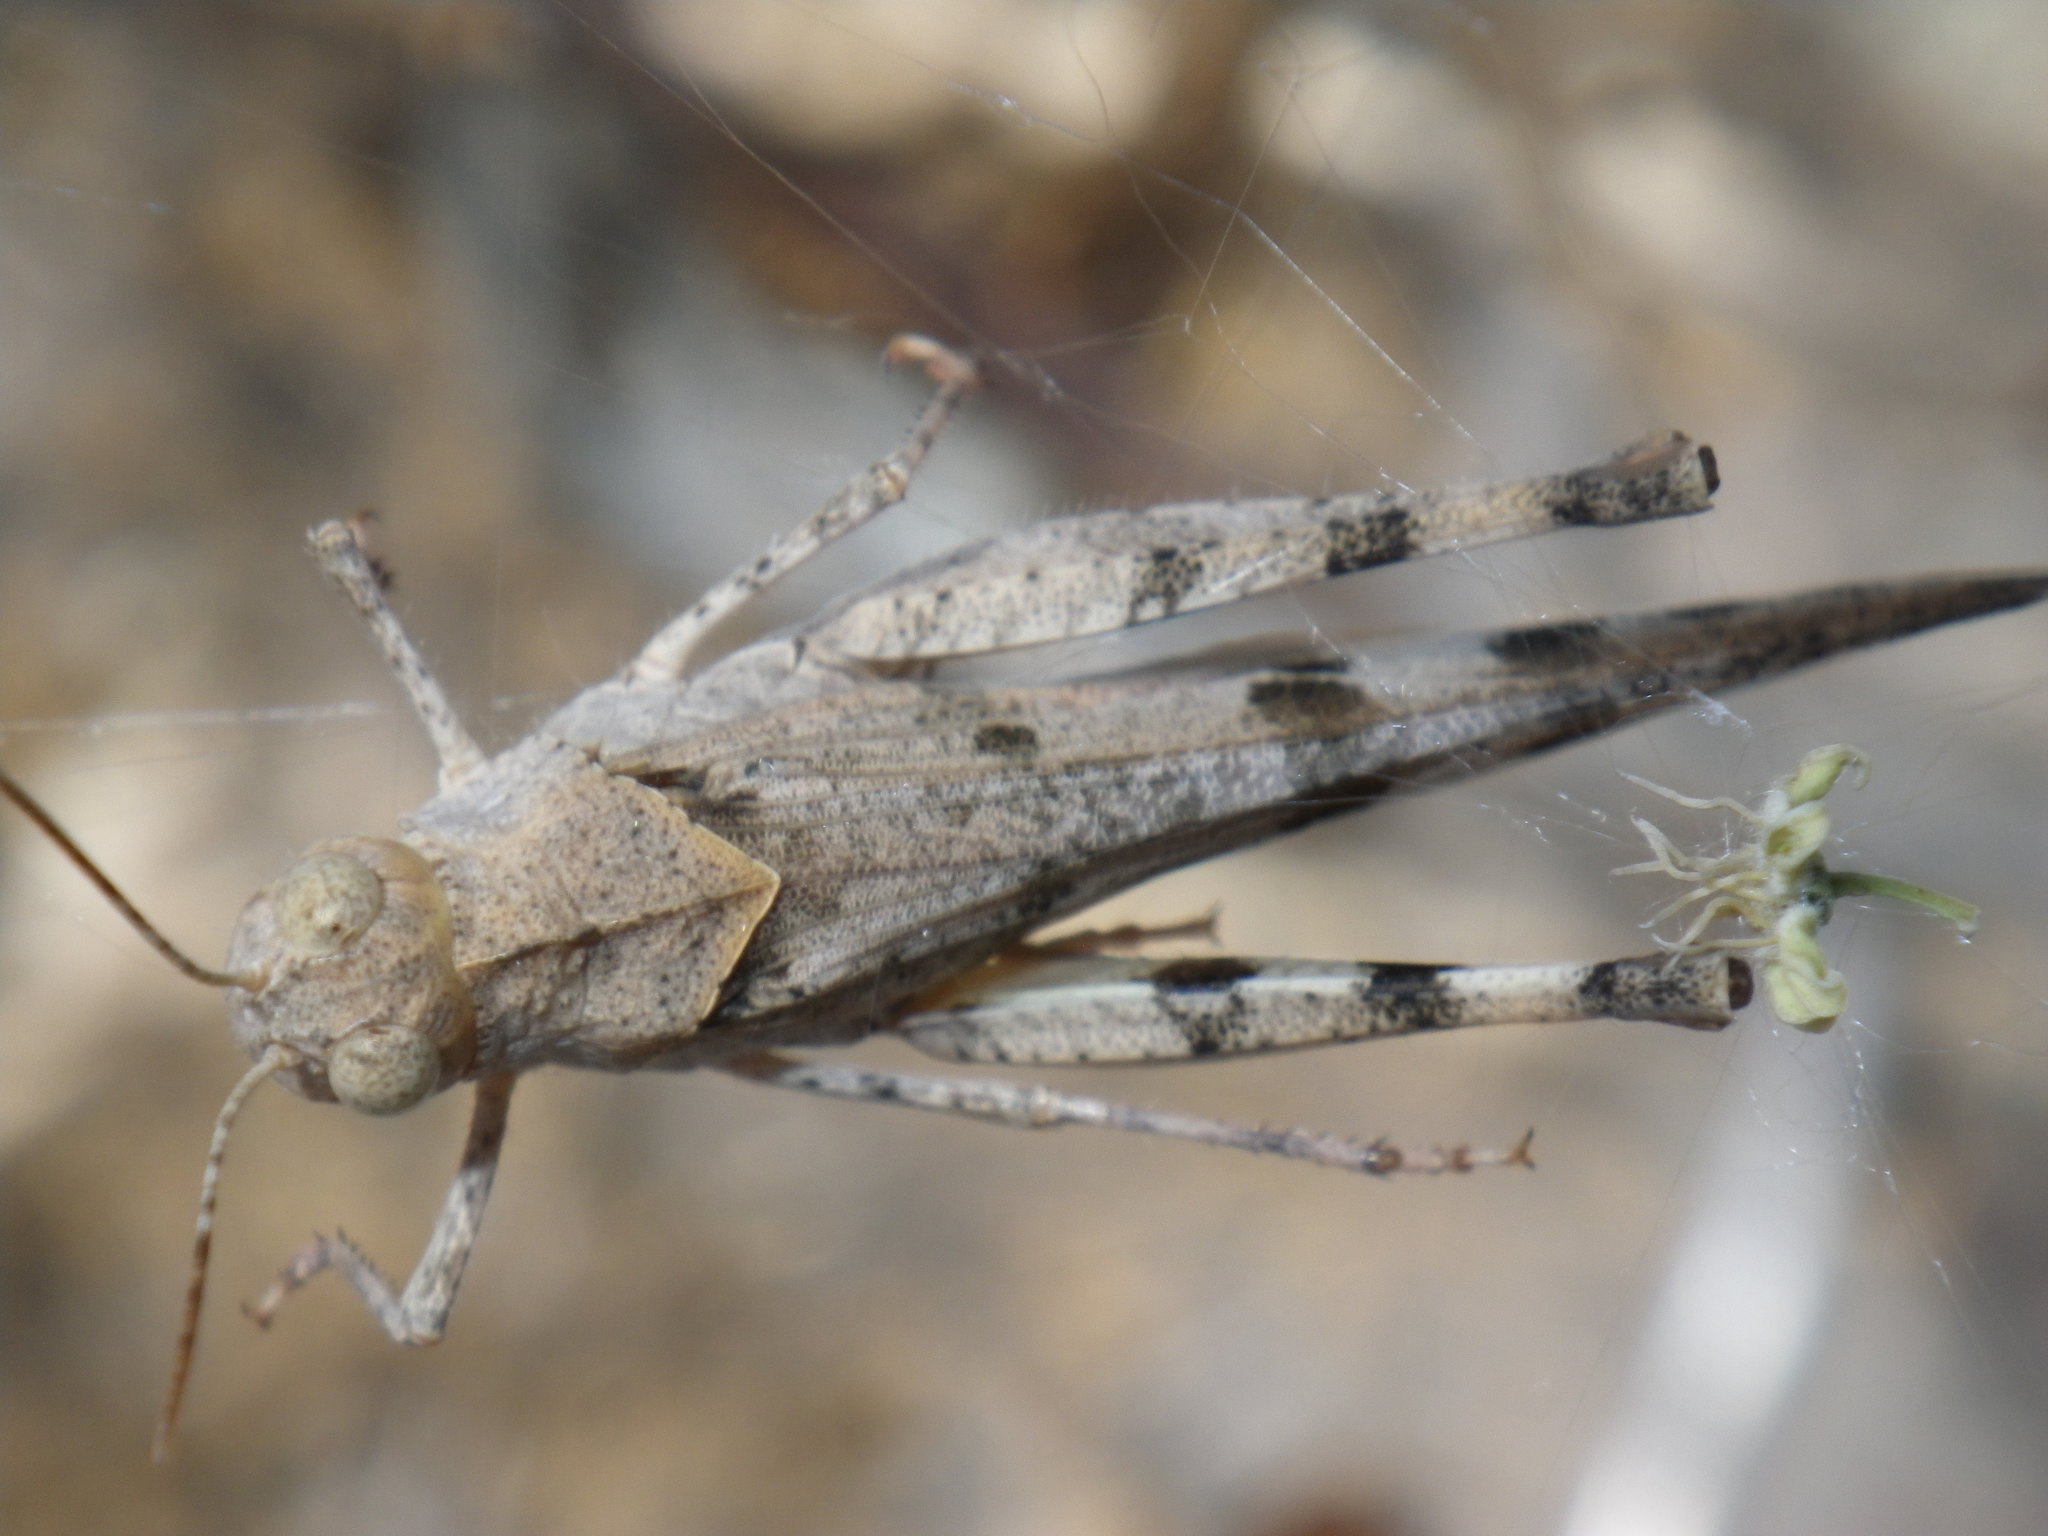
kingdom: Animalia
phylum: Arthropoda
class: Insecta
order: Orthoptera
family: Acrididae
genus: Trimerotropis
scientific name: Trimerotropis fontana
